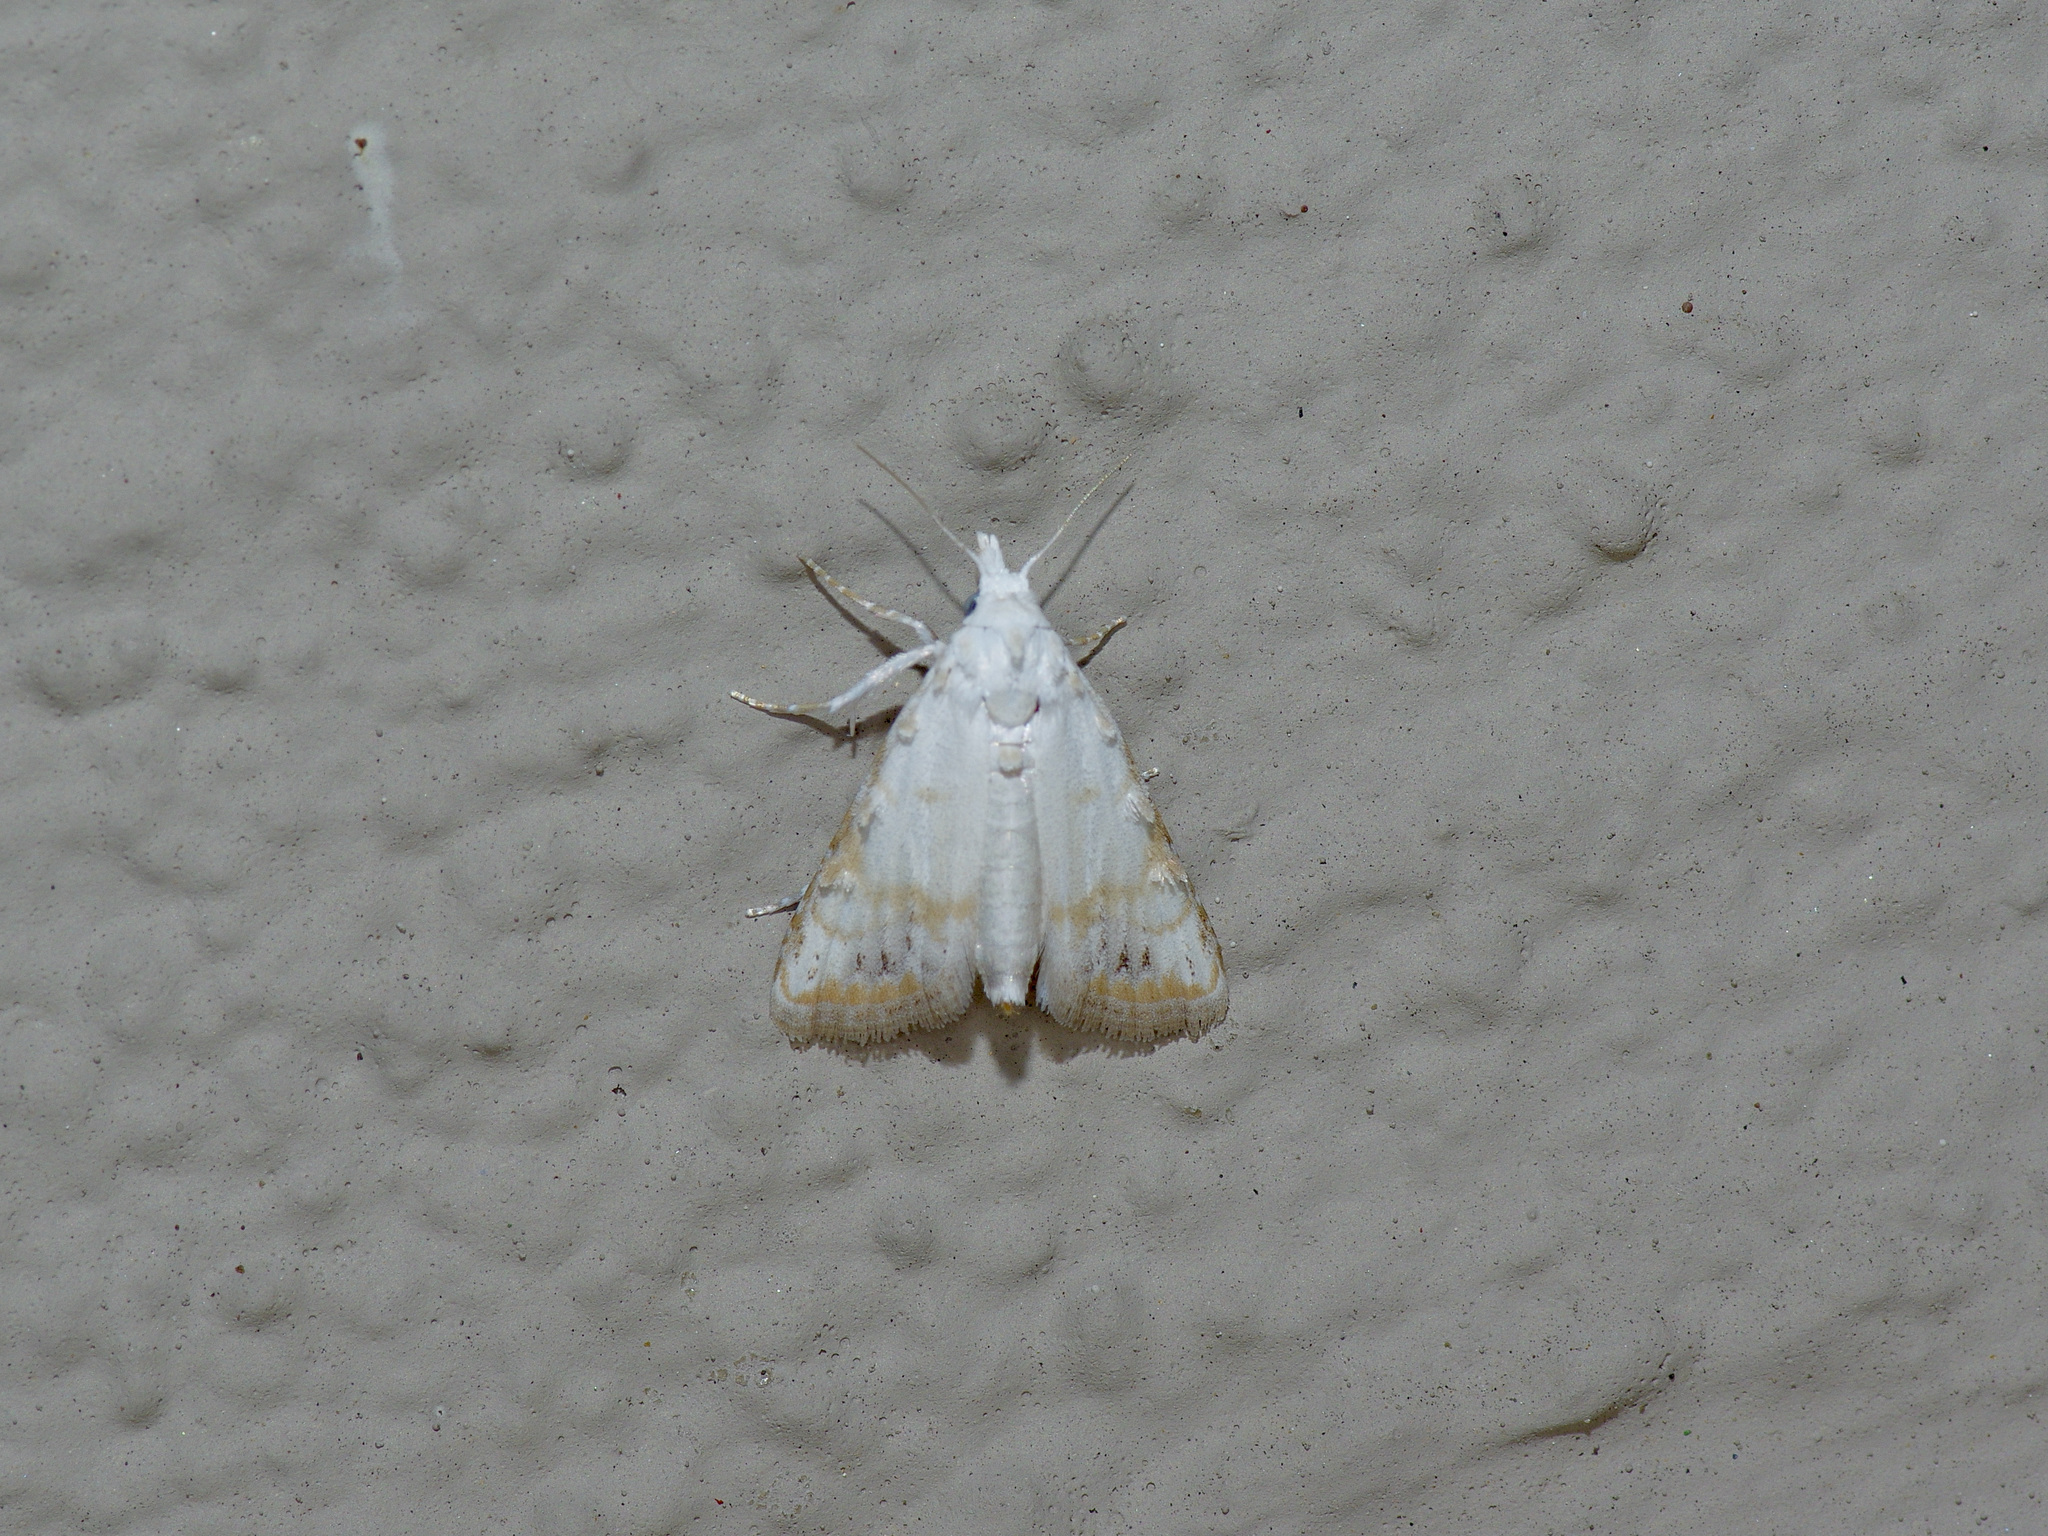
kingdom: Animalia
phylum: Arthropoda
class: Insecta
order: Lepidoptera
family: Nolidae
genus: Nola
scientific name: Nola cereella
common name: Sorghum webworm moth
